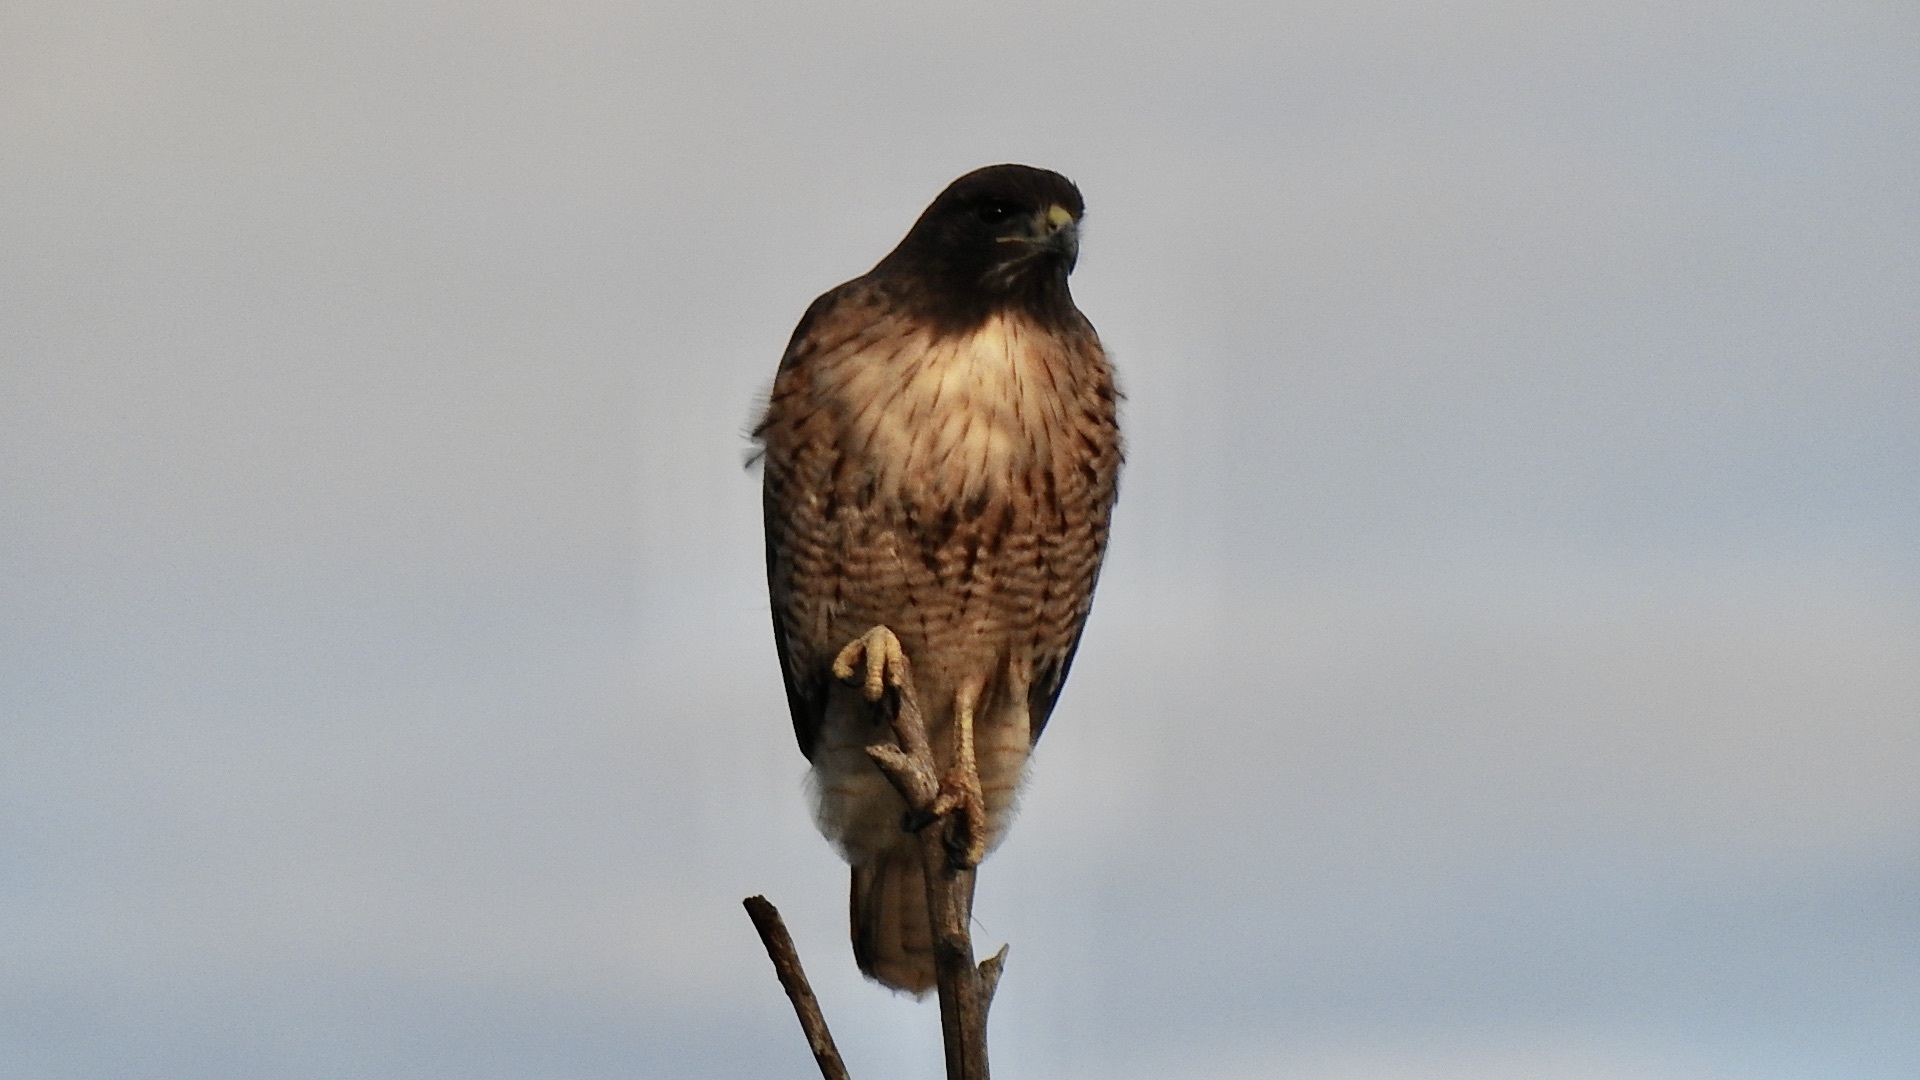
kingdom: Animalia
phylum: Chordata
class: Aves
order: Accipitriformes
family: Accipitridae
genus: Buteo
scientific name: Buteo jamaicensis
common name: Red-tailed hawk
